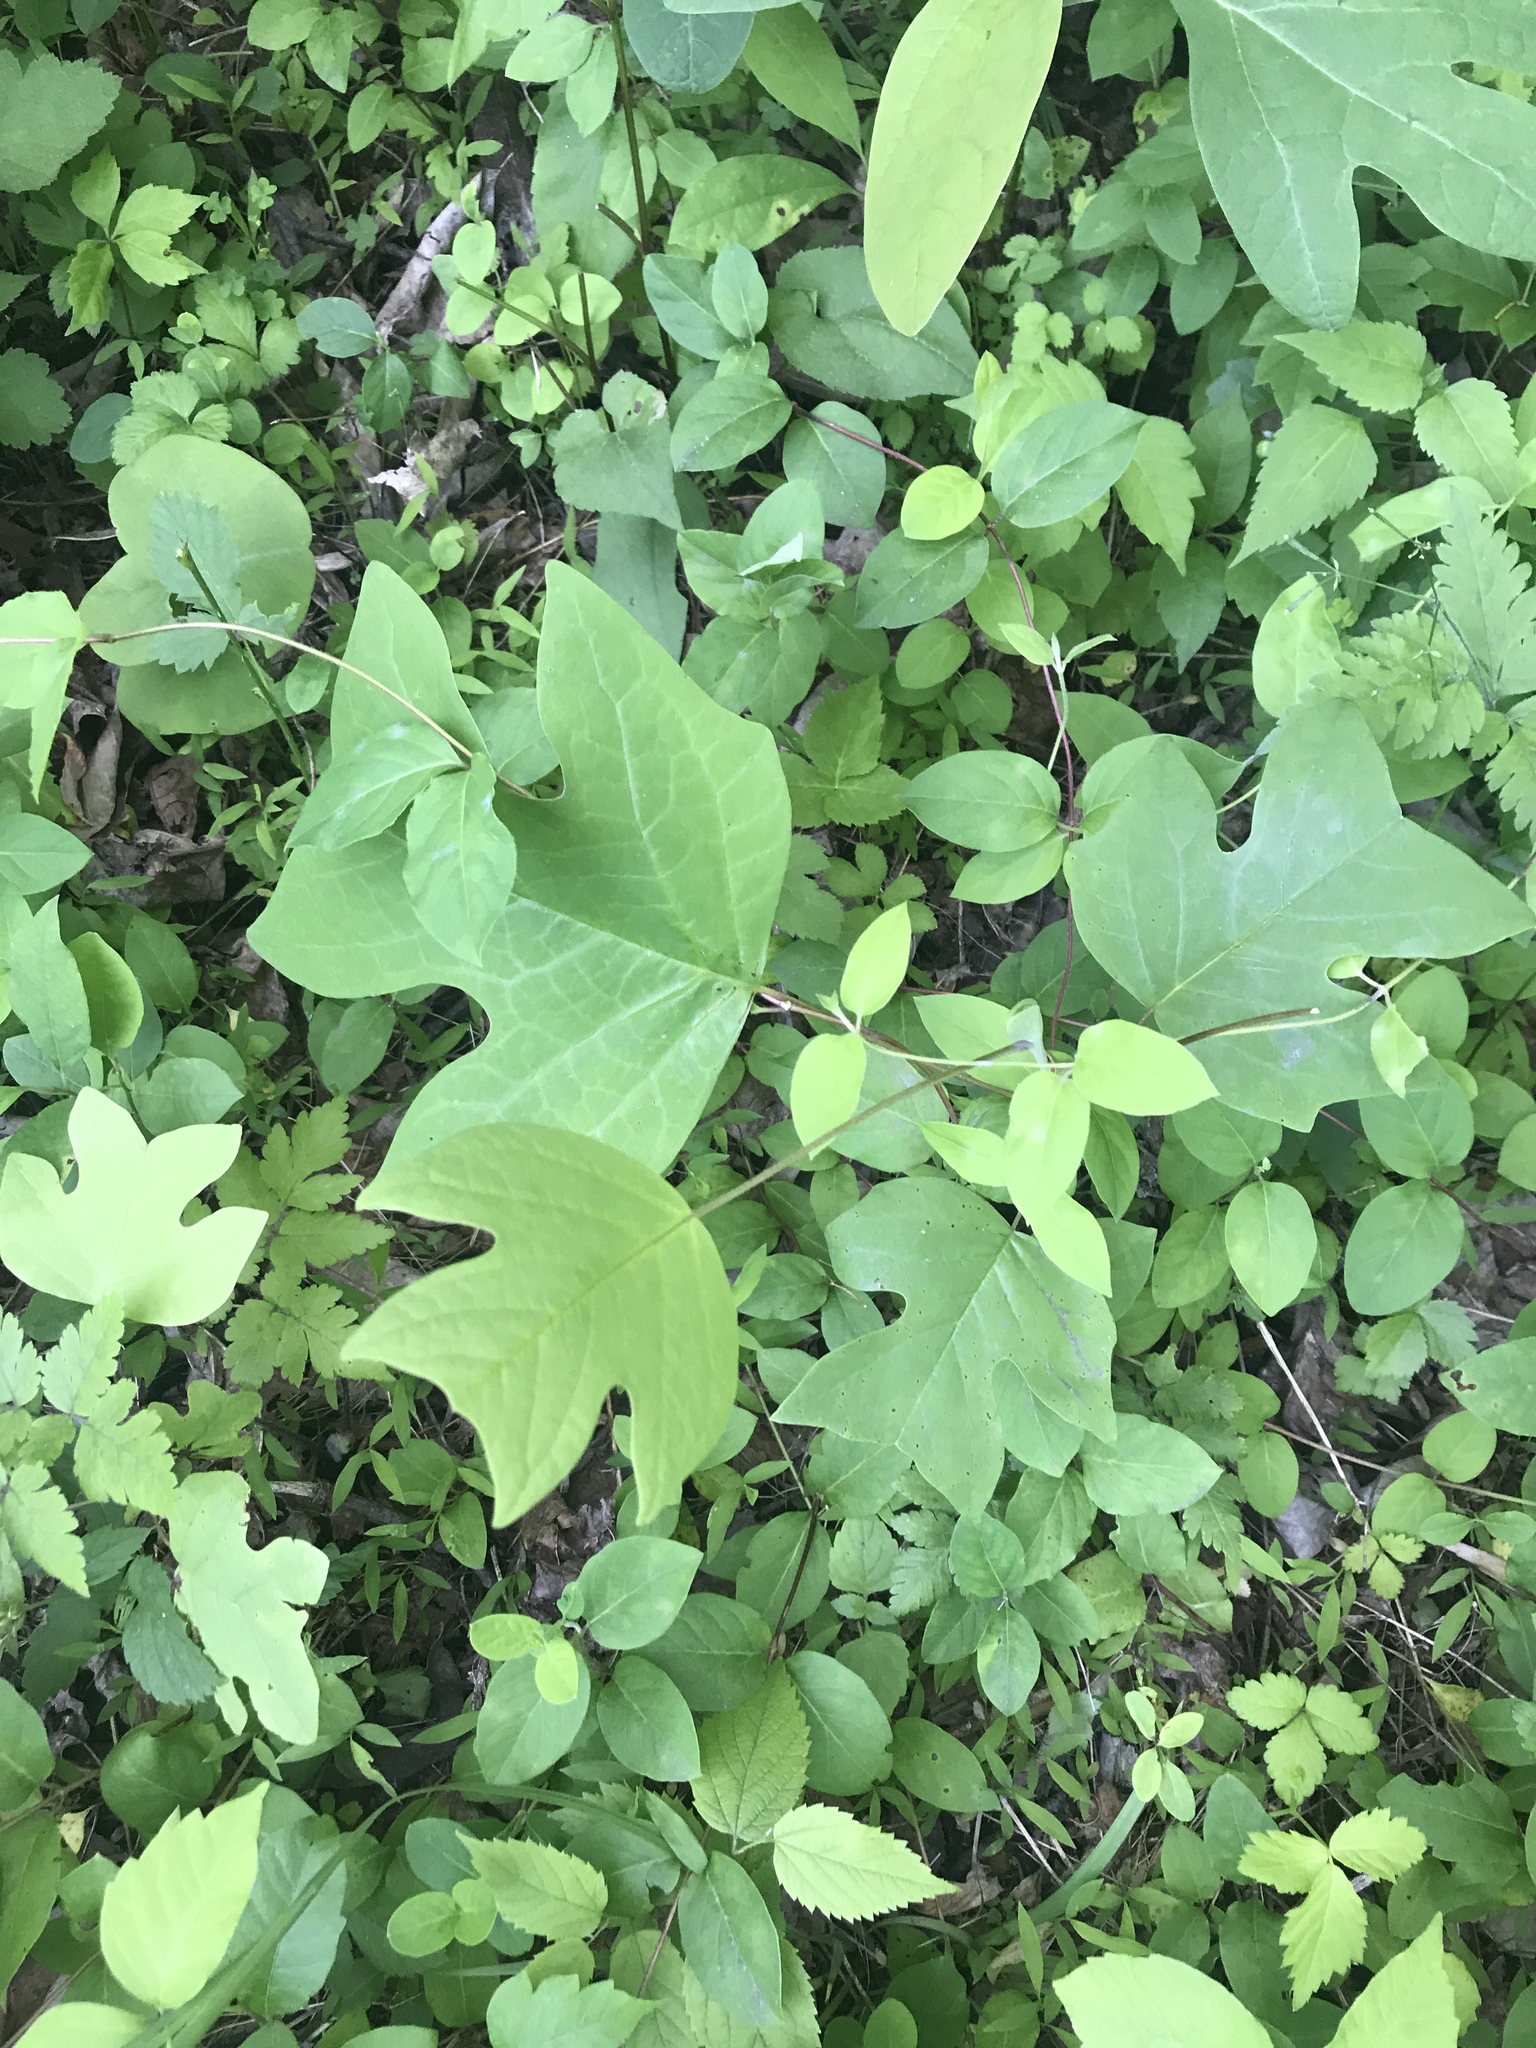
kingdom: Plantae
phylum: Tracheophyta
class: Magnoliopsida
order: Magnoliales
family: Magnoliaceae
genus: Liriodendron
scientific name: Liriodendron tulipifera
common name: Tulip tree
